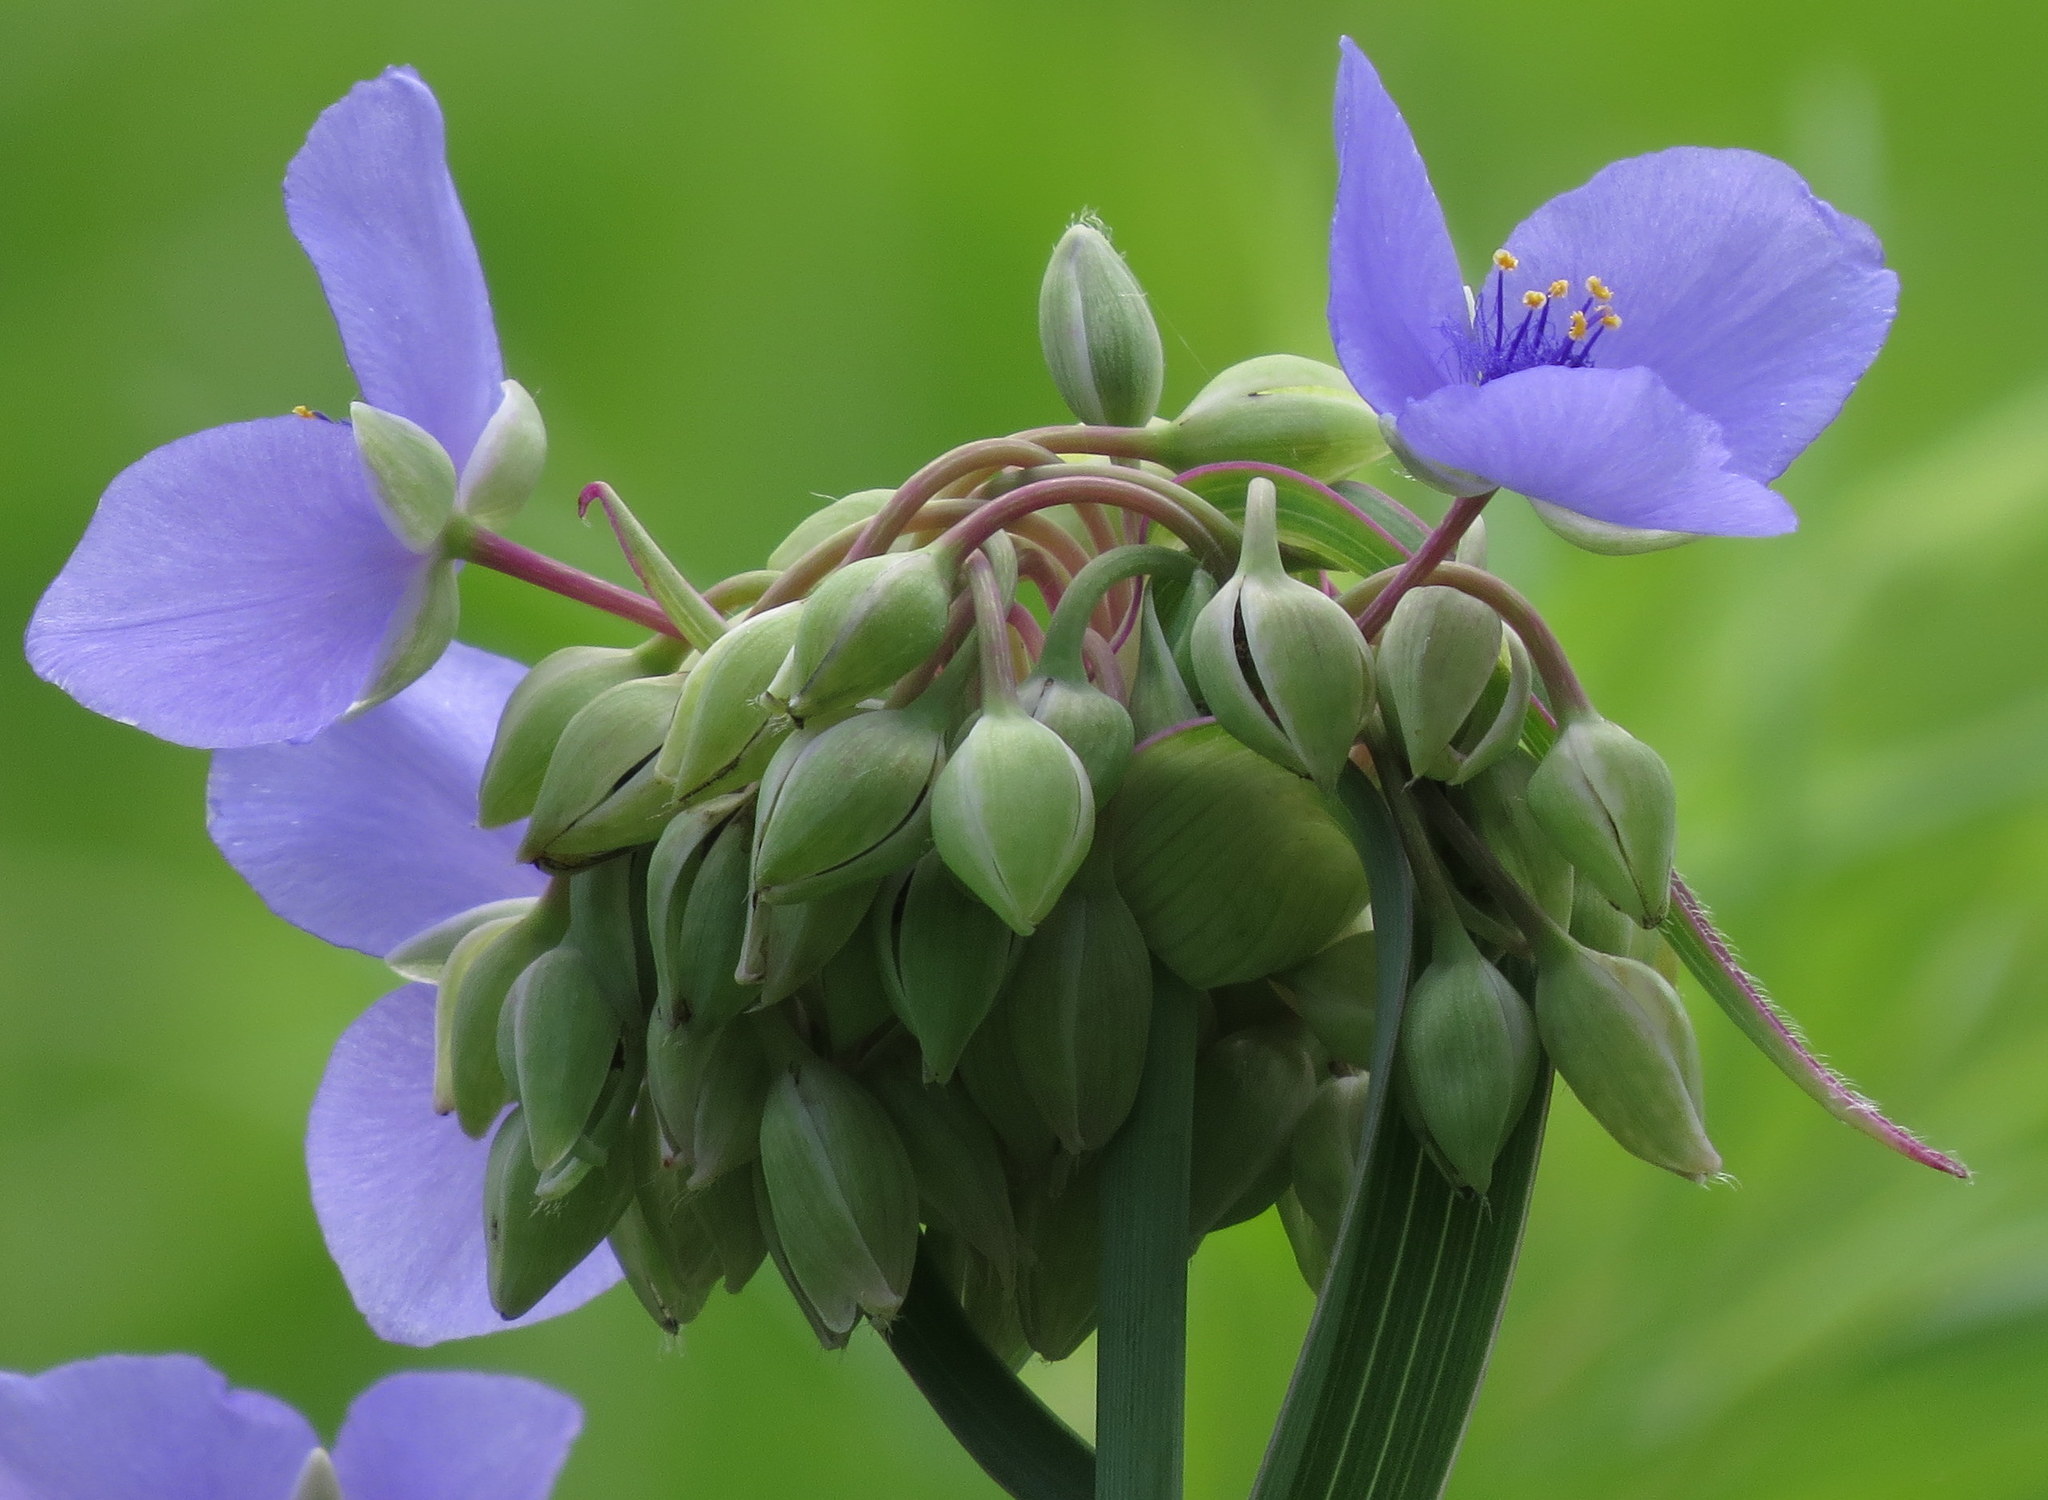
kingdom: Plantae
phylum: Tracheophyta
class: Liliopsida
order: Commelinales
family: Commelinaceae
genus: Tradescantia
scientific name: Tradescantia ohiensis
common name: Ohio spiderwort
